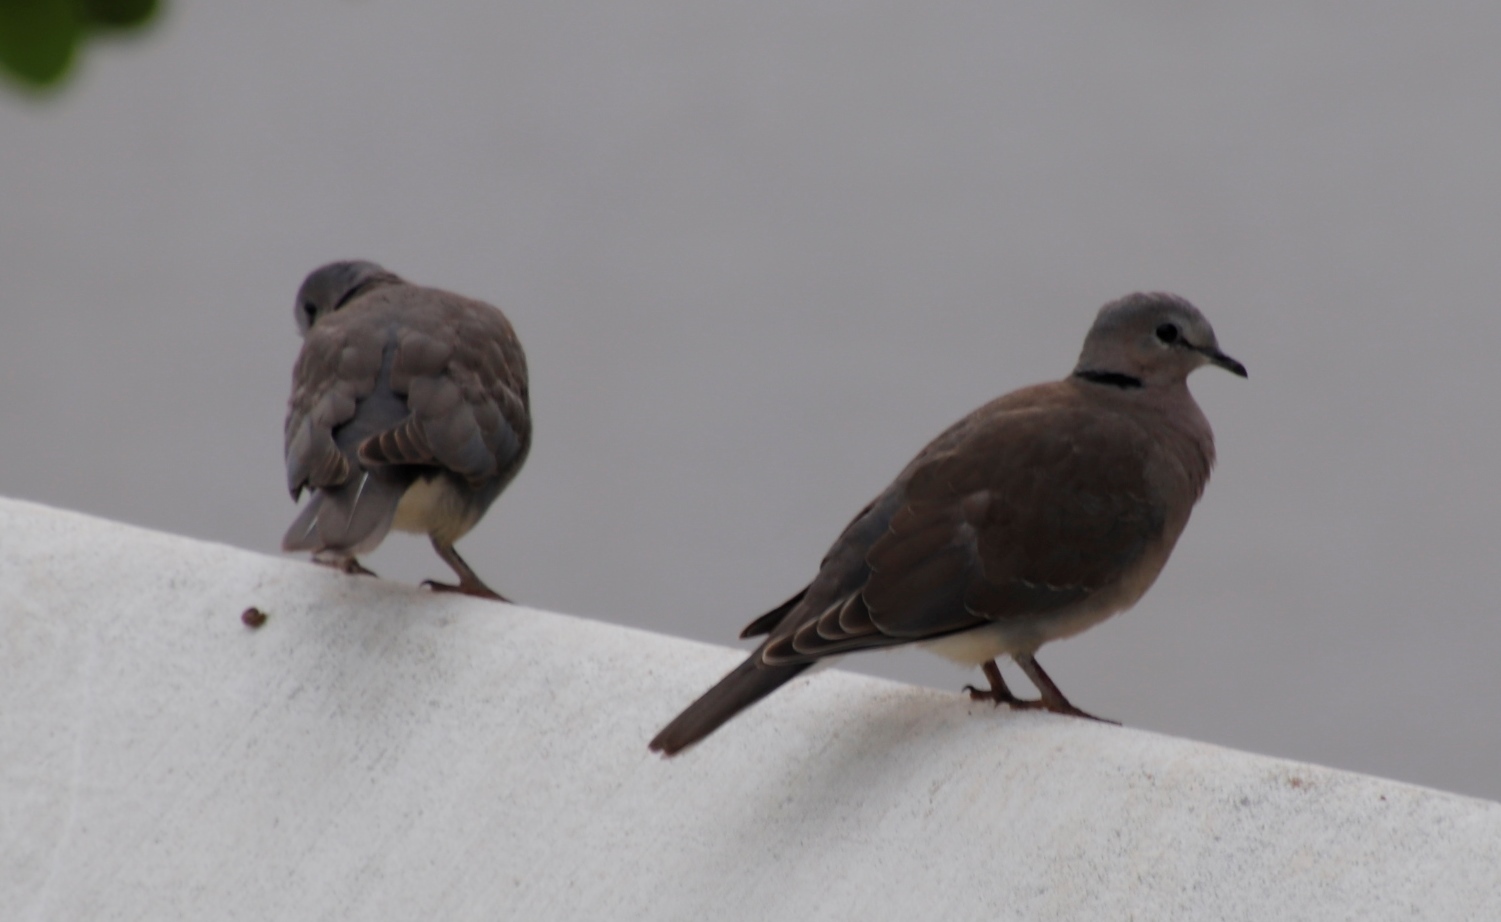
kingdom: Animalia
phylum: Chordata
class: Aves
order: Columbiformes
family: Columbidae
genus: Streptopelia
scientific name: Streptopelia capicola
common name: Ring-necked dove
